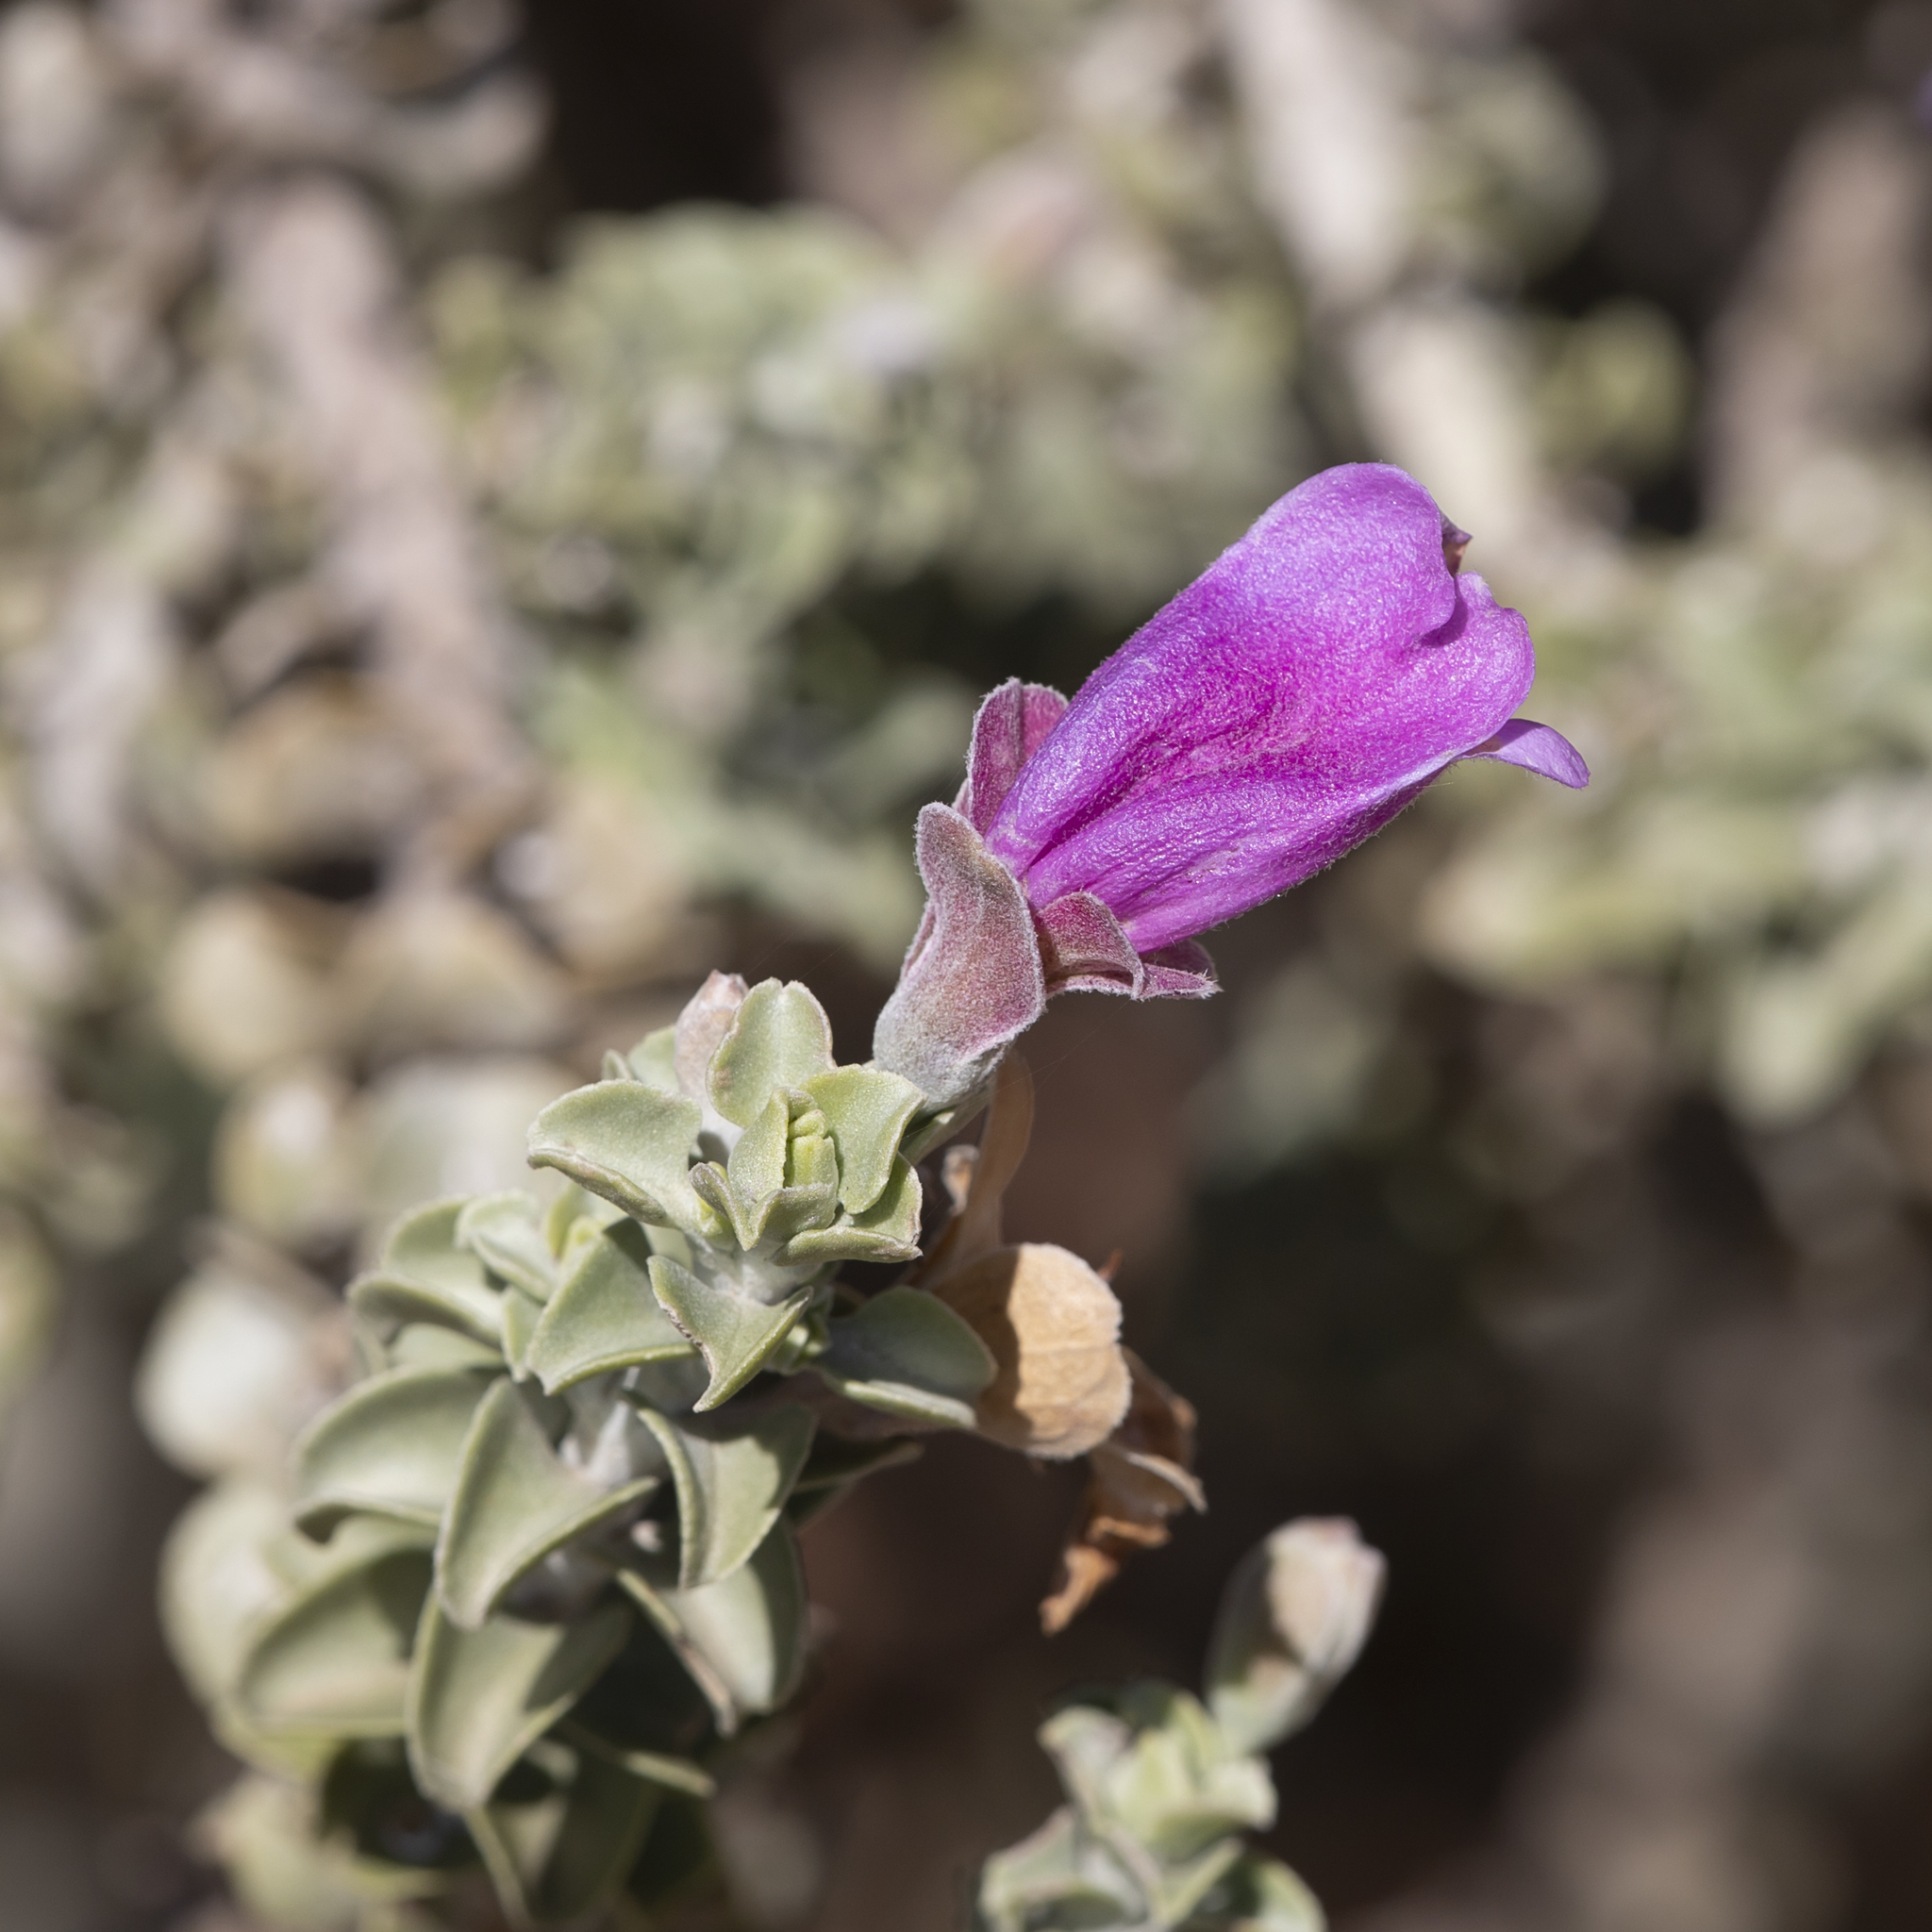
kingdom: Plantae
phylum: Tracheophyta
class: Magnoliopsida
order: Lamiales
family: Scrophulariaceae
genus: Eremophila
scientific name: Eremophila rotundifolia
